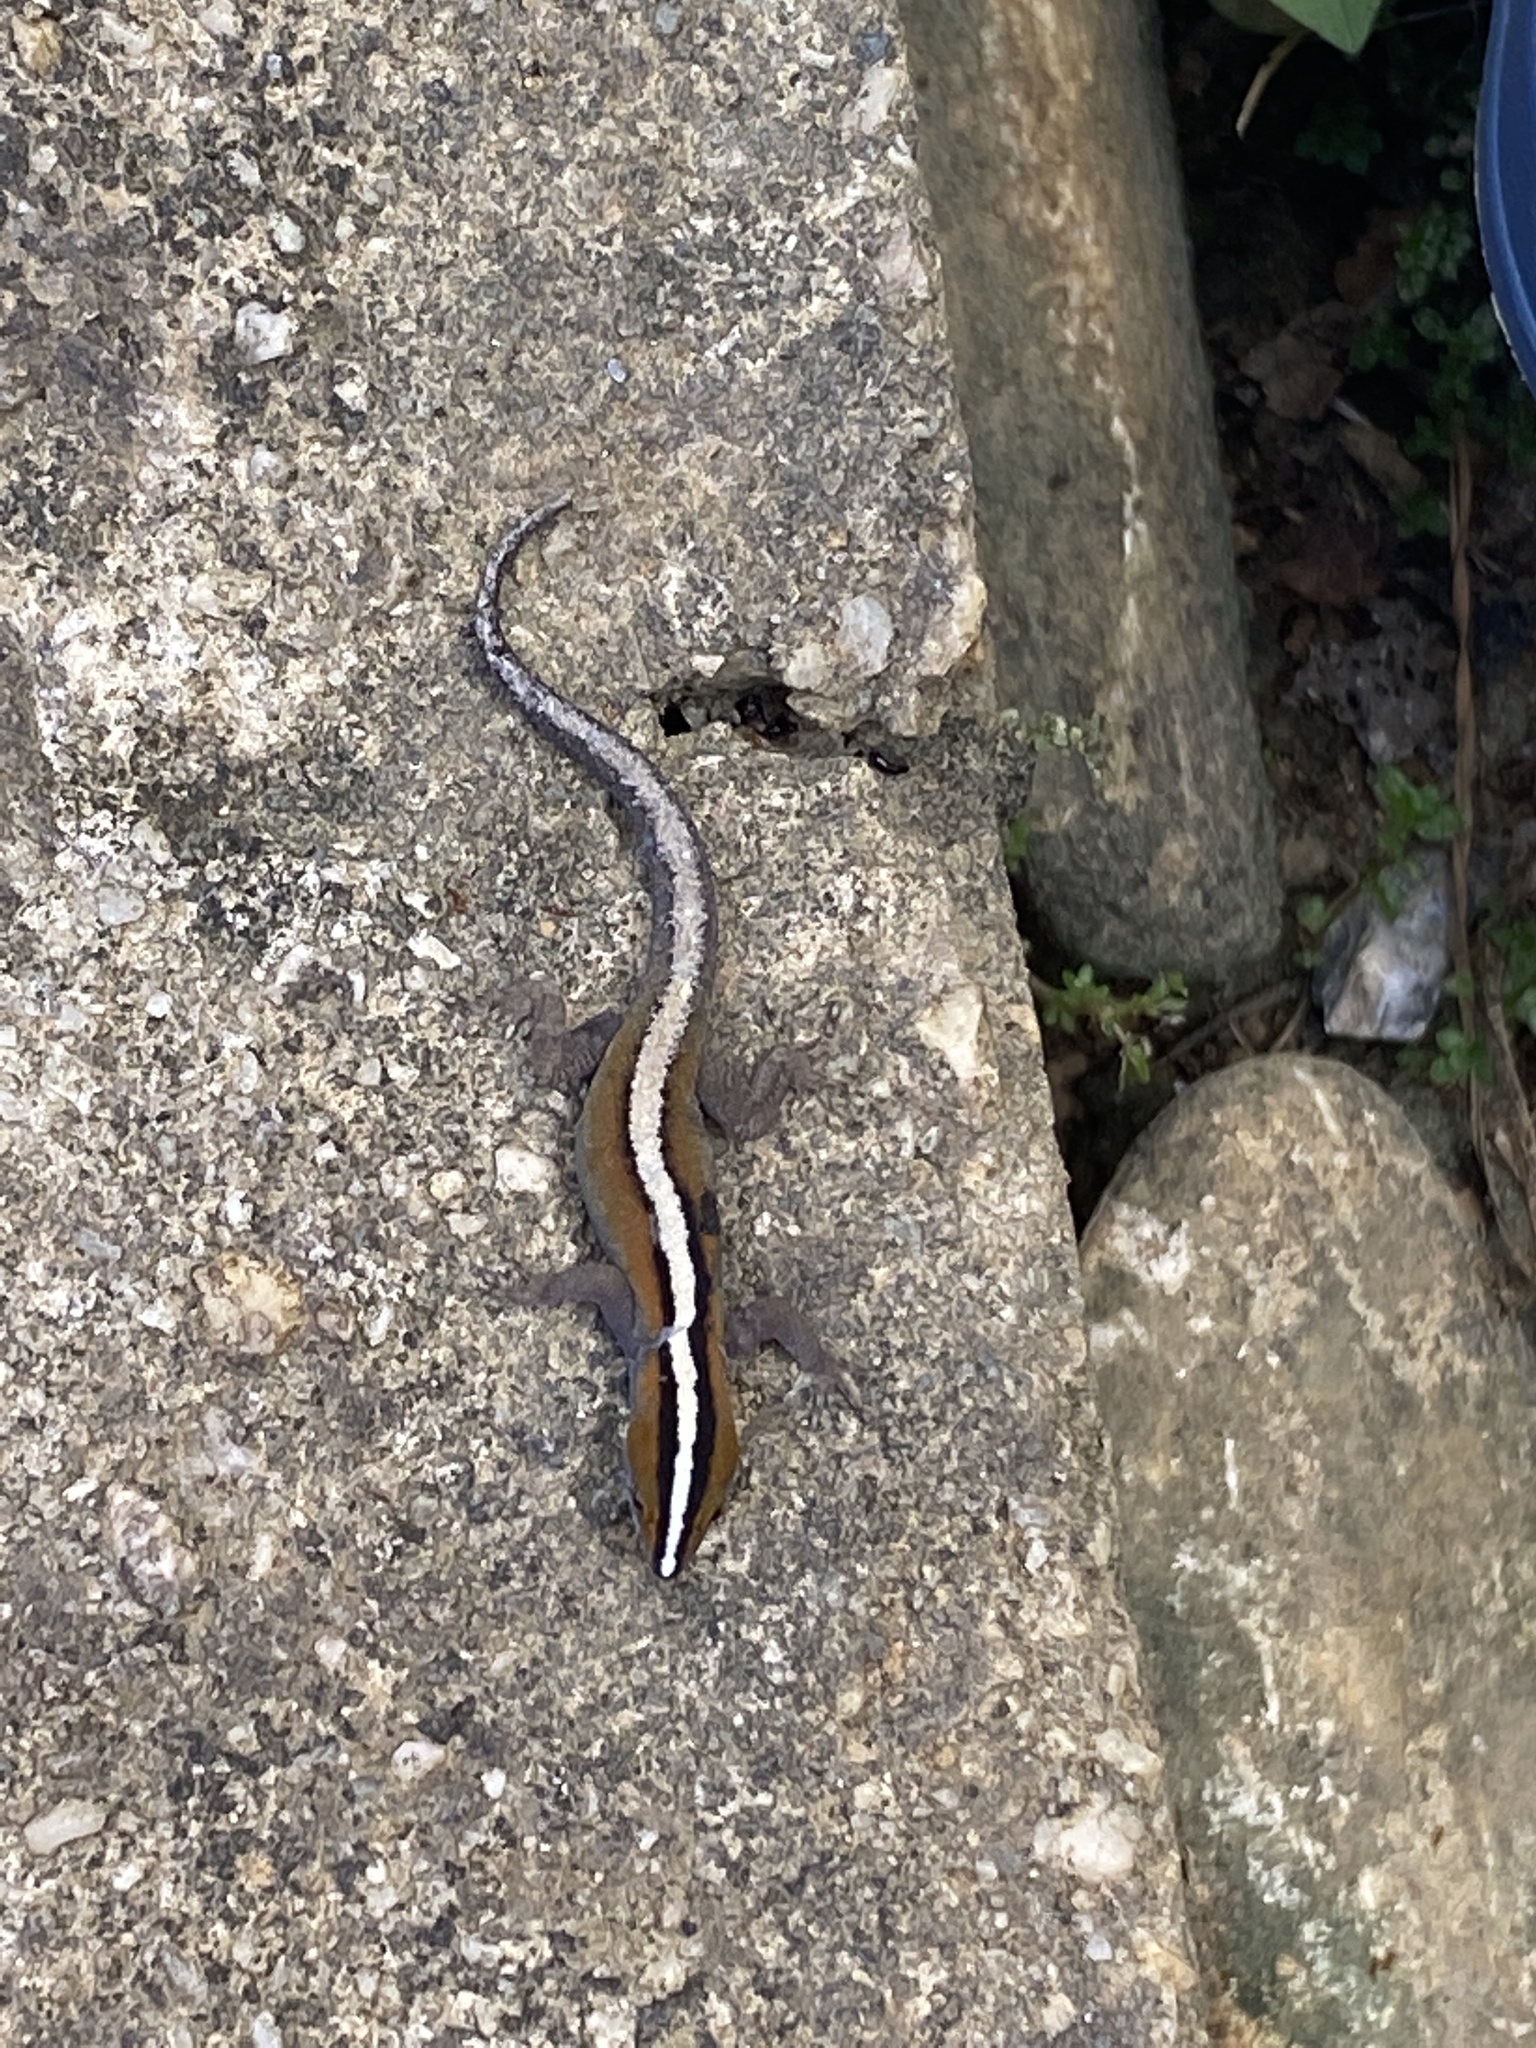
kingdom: Animalia
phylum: Chordata
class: Squamata
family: Sphaerodactylidae
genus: Gonatodes
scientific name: Gonatodes vittatus
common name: Wiegmann's striped gecko
